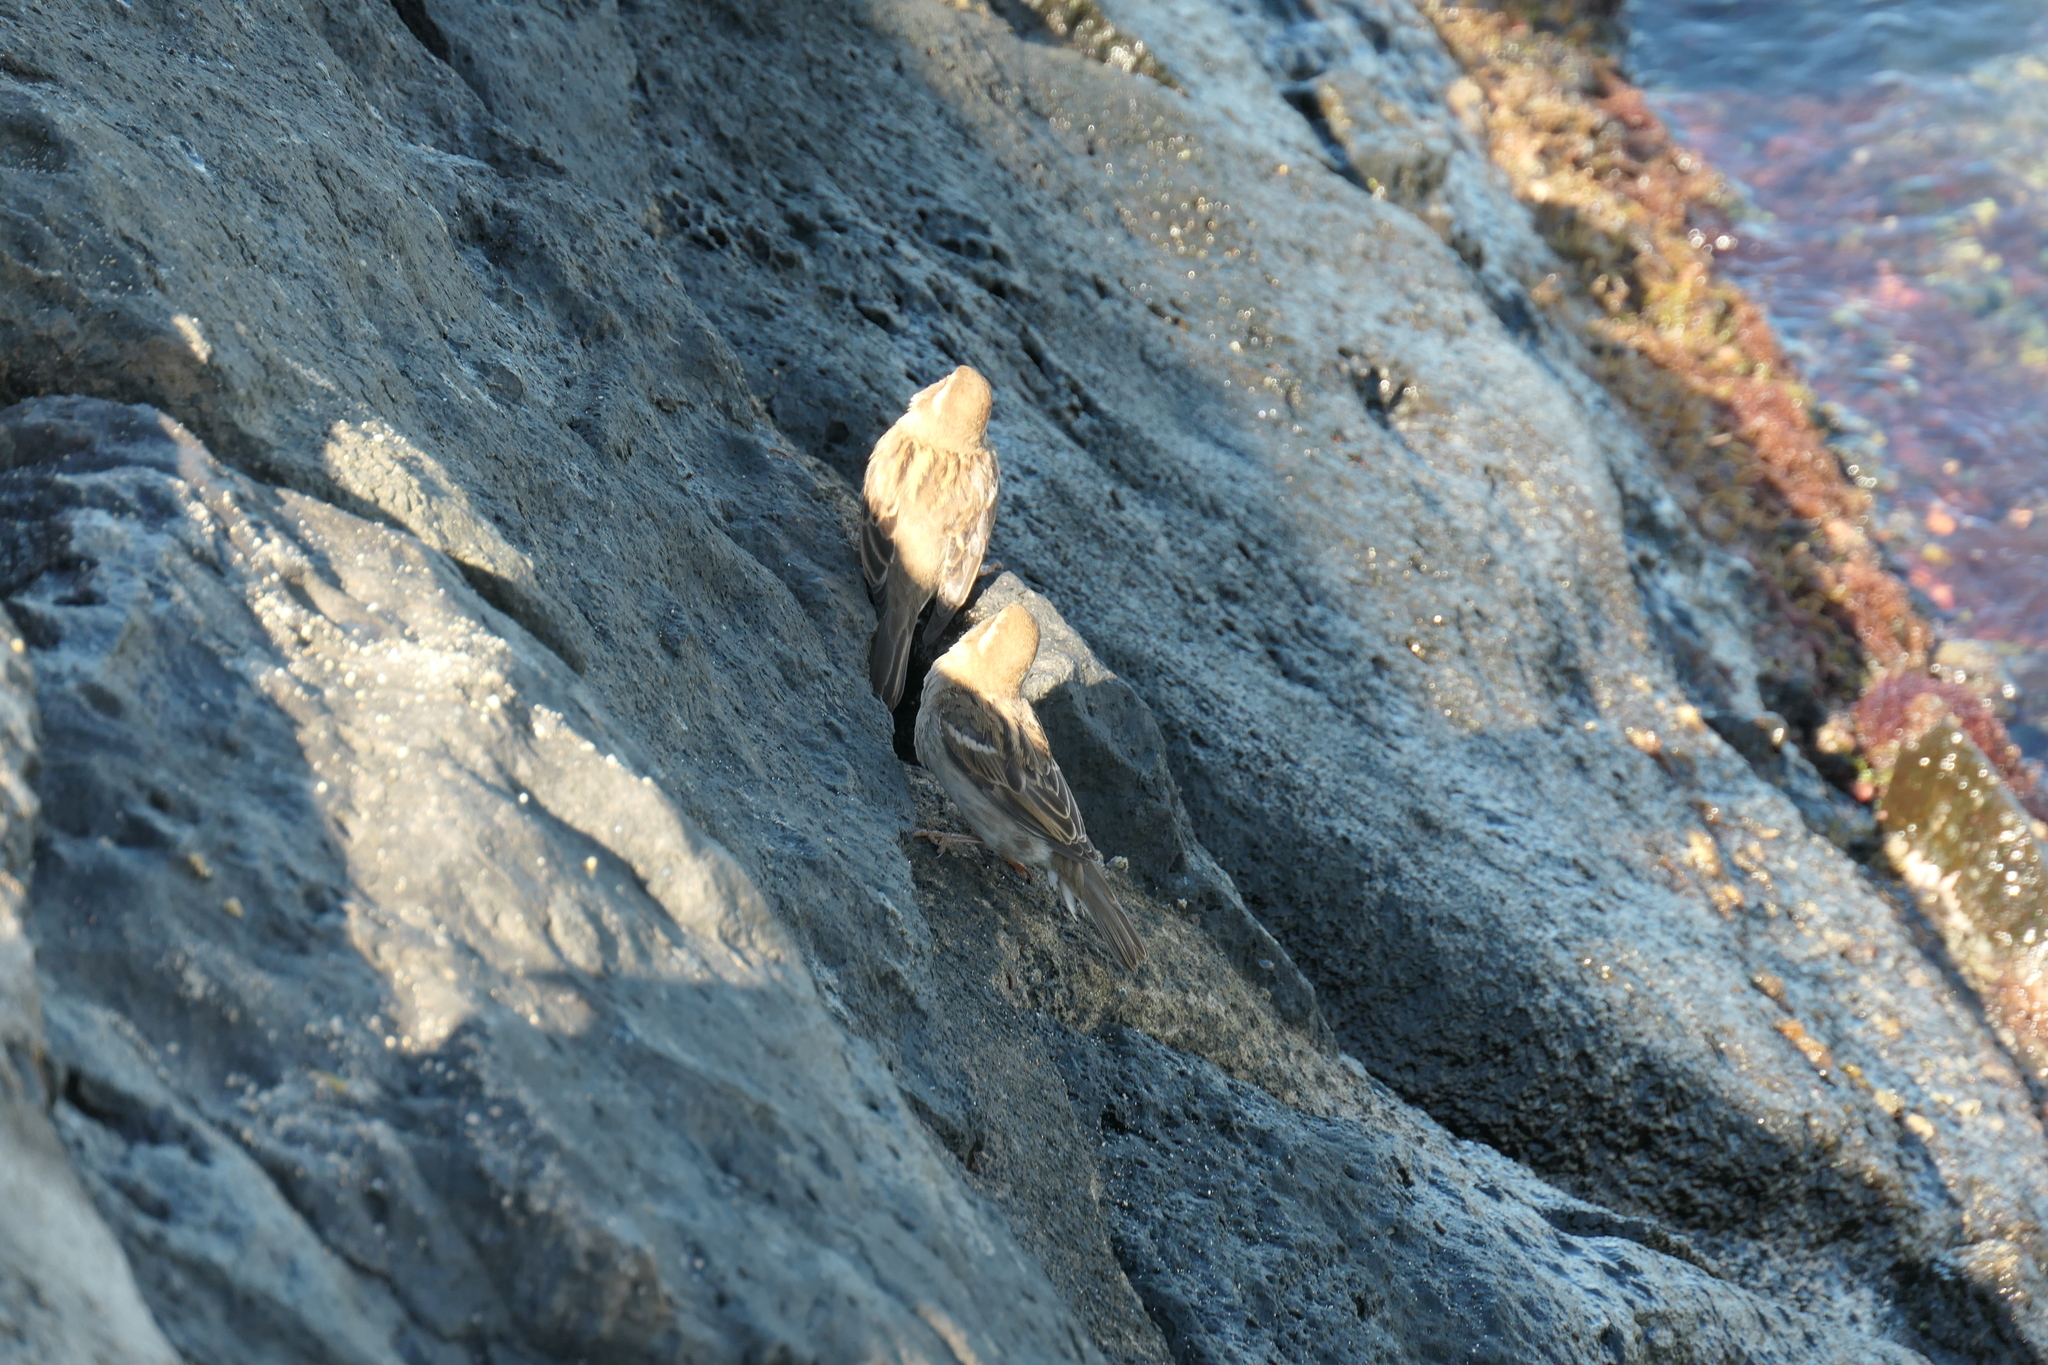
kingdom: Animalia
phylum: Chordata
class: Aves
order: Passeriformes
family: Passeridae
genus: Passer
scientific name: Passer domesticus
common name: House sparrow
